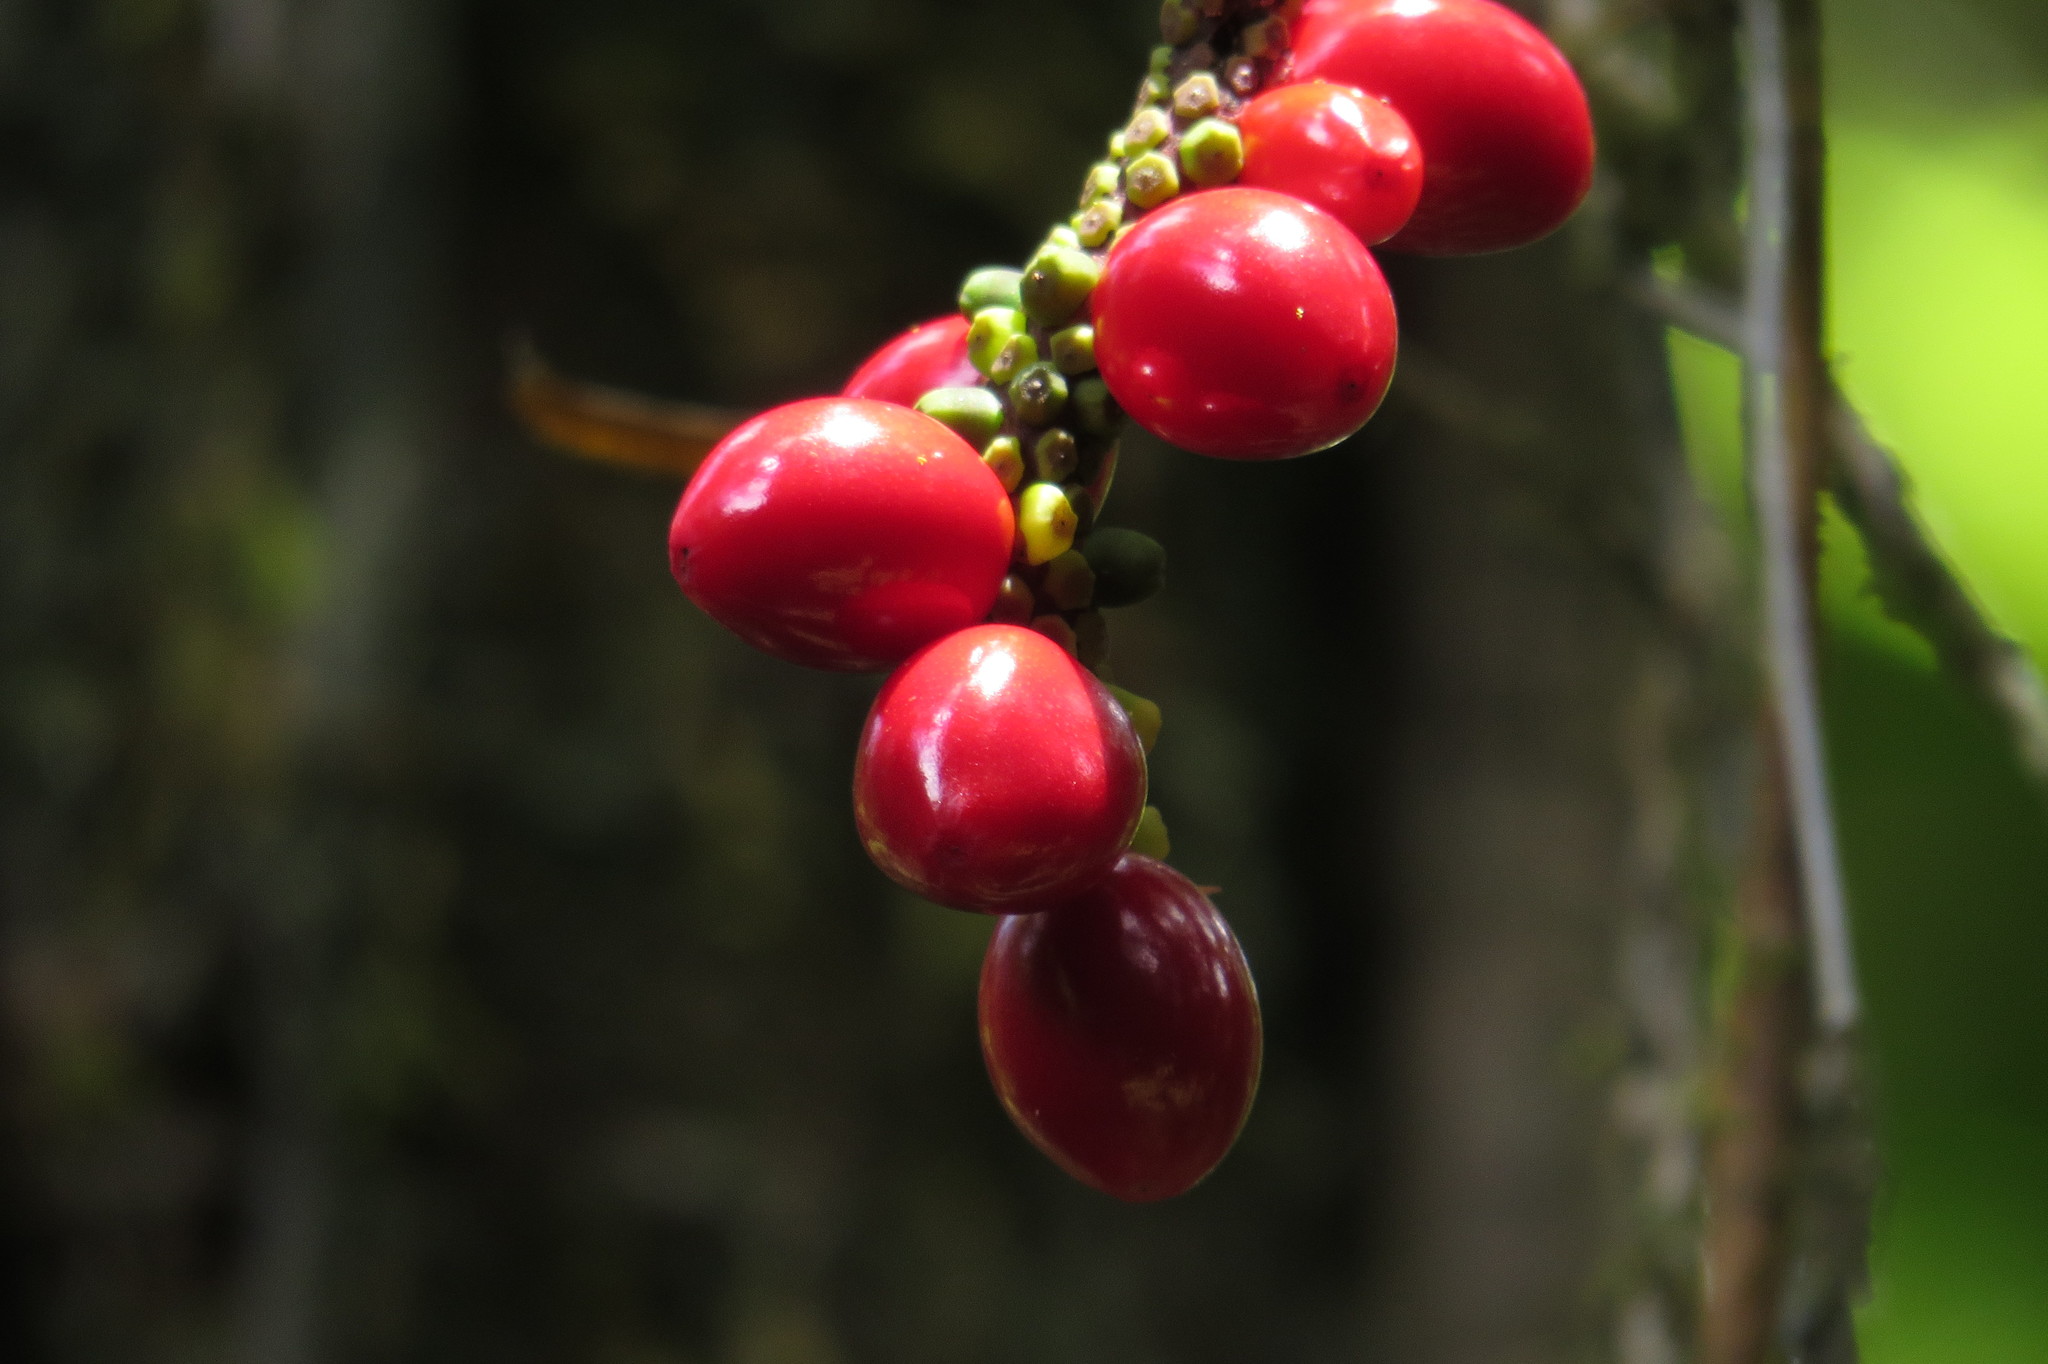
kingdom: Plantae
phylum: Tracheophyta
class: Liliopsida
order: Alismatales
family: Araceae
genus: Pothos
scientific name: Pothos longipes
